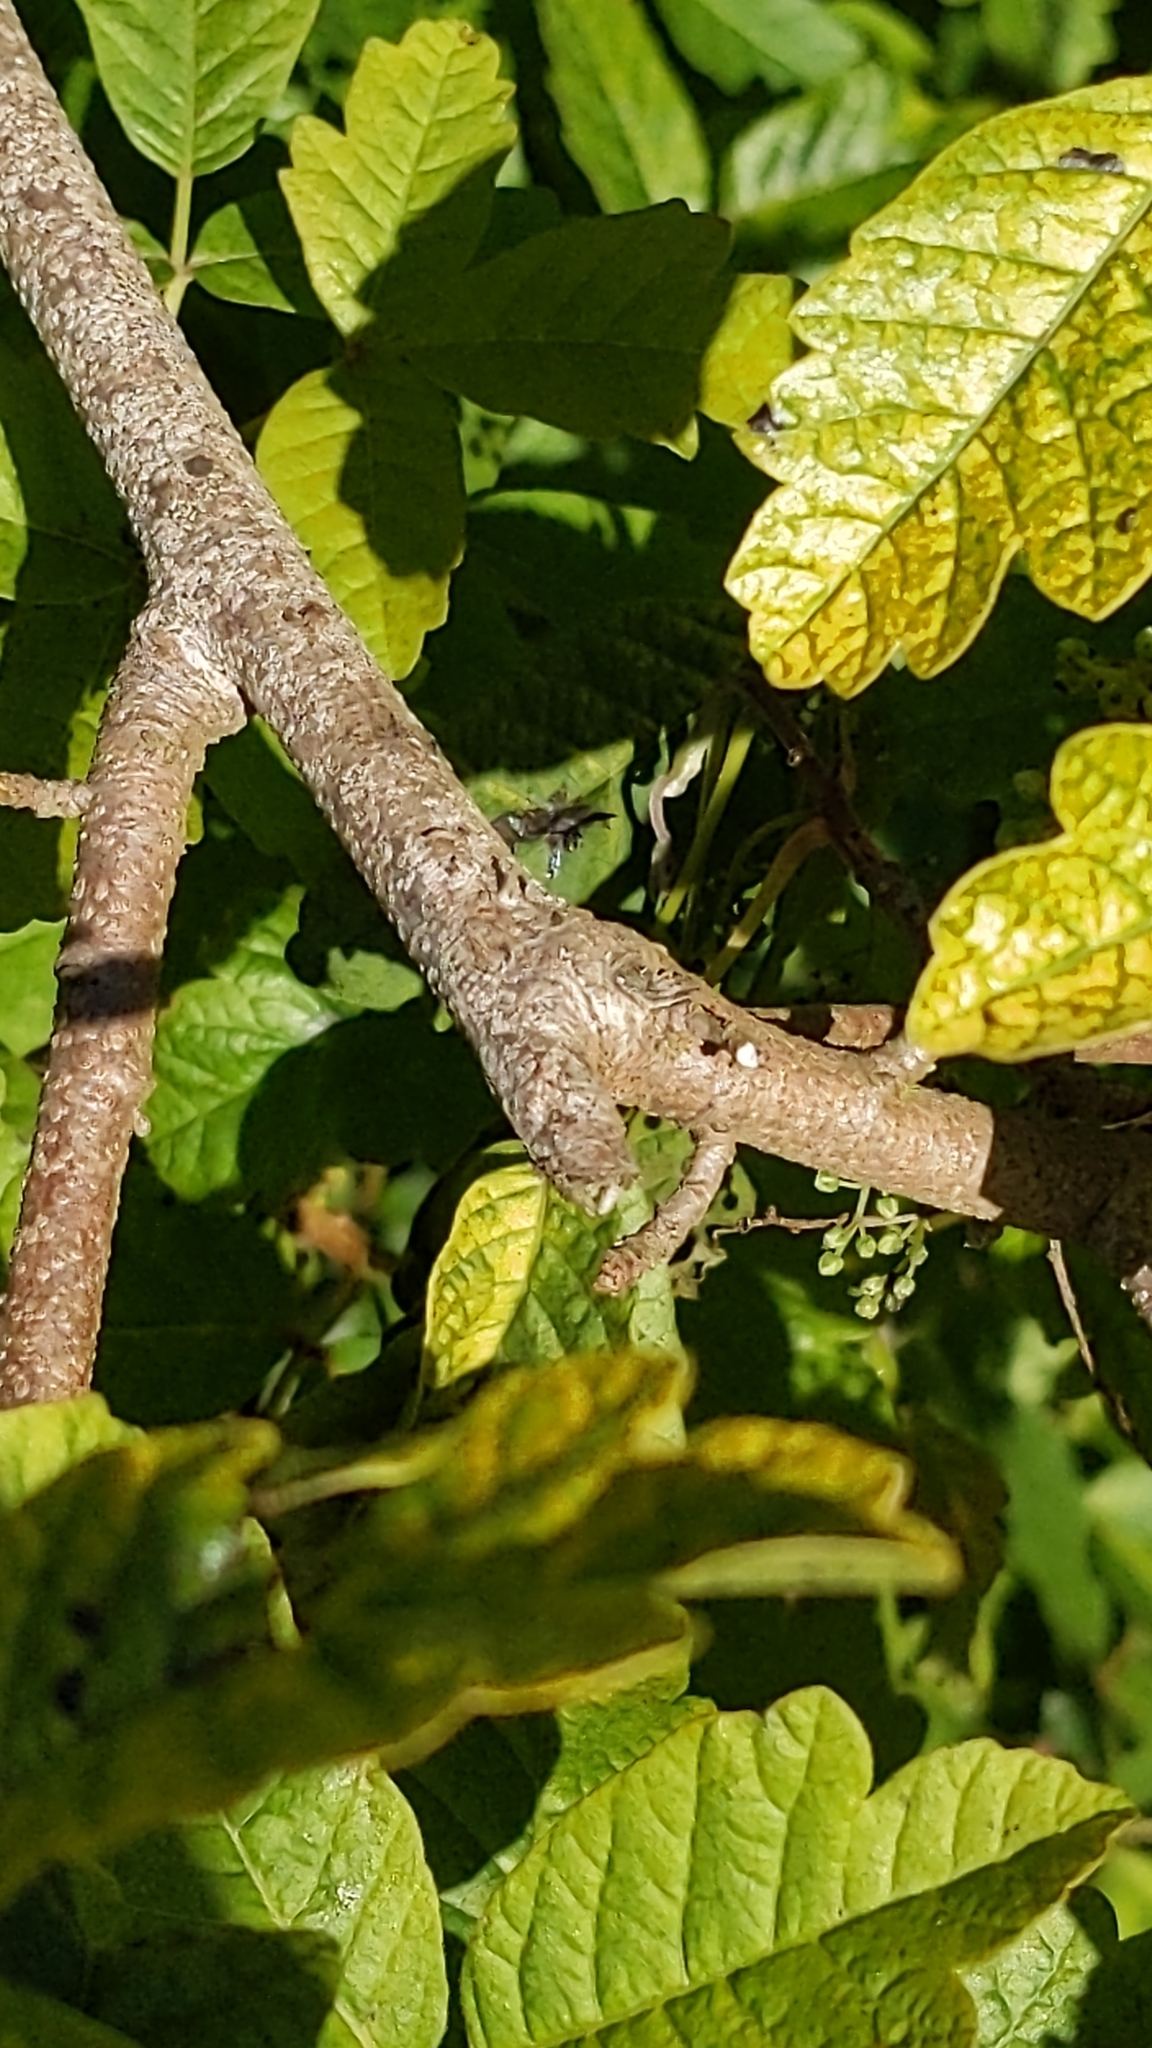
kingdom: Plantae
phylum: Tracheophyta
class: Magnoliopsida
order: Sapindales
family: Anacardiaceae
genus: Toxicodendron
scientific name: Toxicodendron diversilobum
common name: Pacific poison-oak
